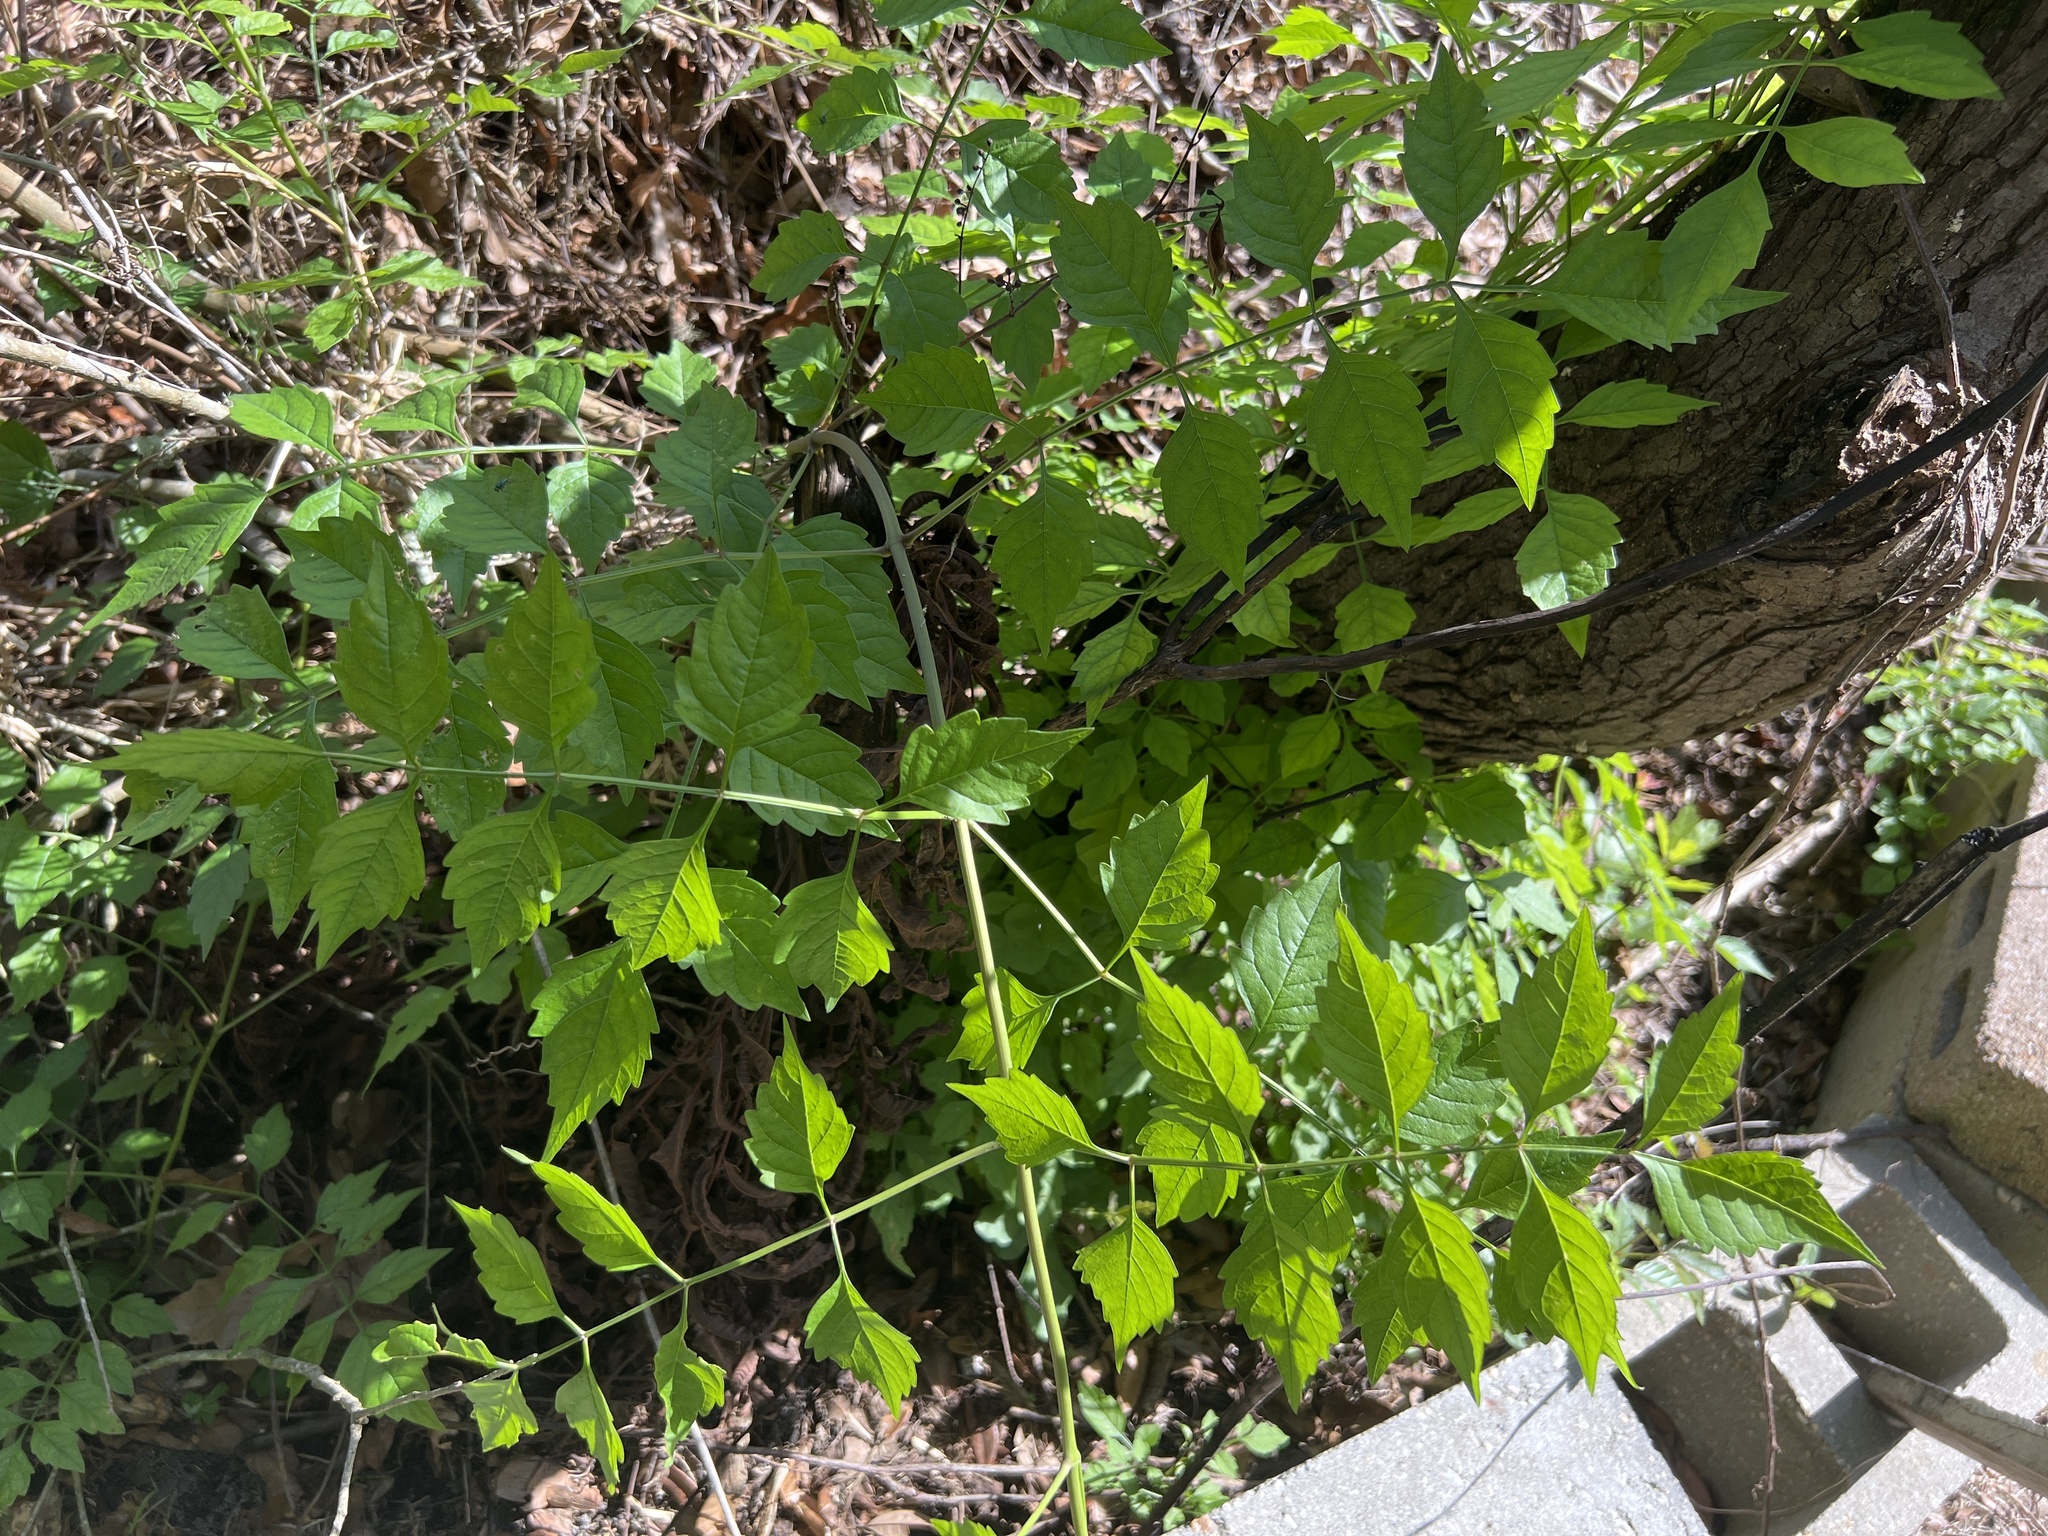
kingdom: Plantae
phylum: Tracheophyta
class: Magnoliopsida
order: Lamiales
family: Bignoniaceae
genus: Campsis
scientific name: Campsis radicans
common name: Trumpet-creeper
